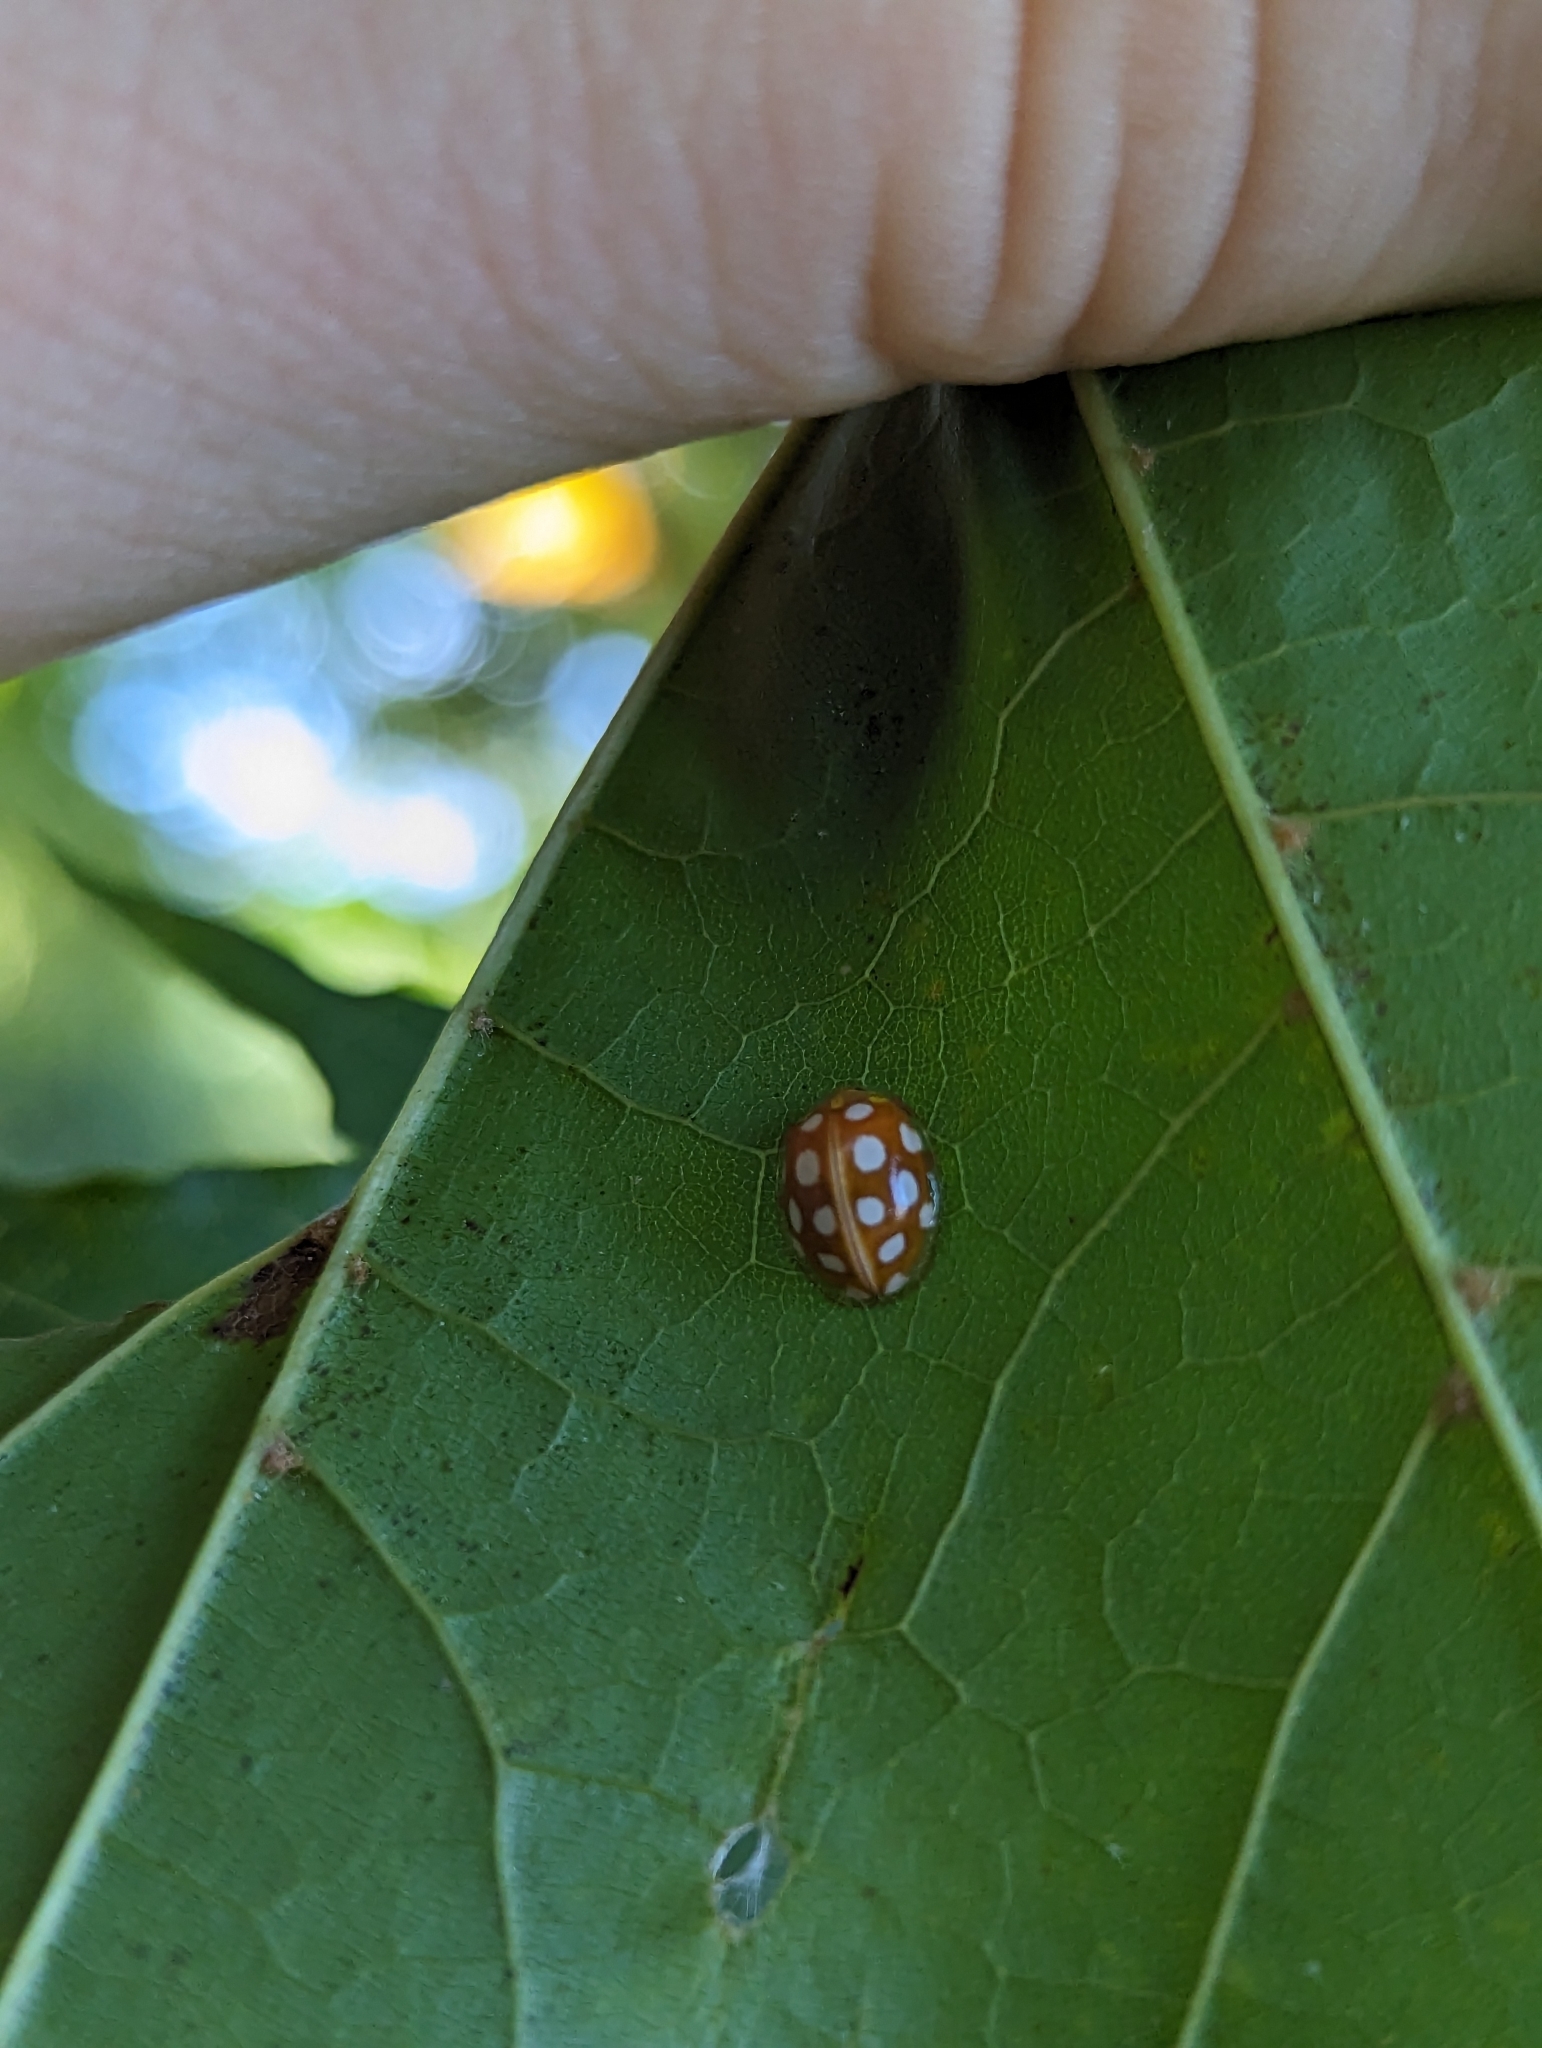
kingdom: Animalia
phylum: Arthropoda
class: Insecta
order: Coleoptera
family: Coccinellidae
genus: Halyzia
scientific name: Halyzia sedecimguttata
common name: Orange ladybird
